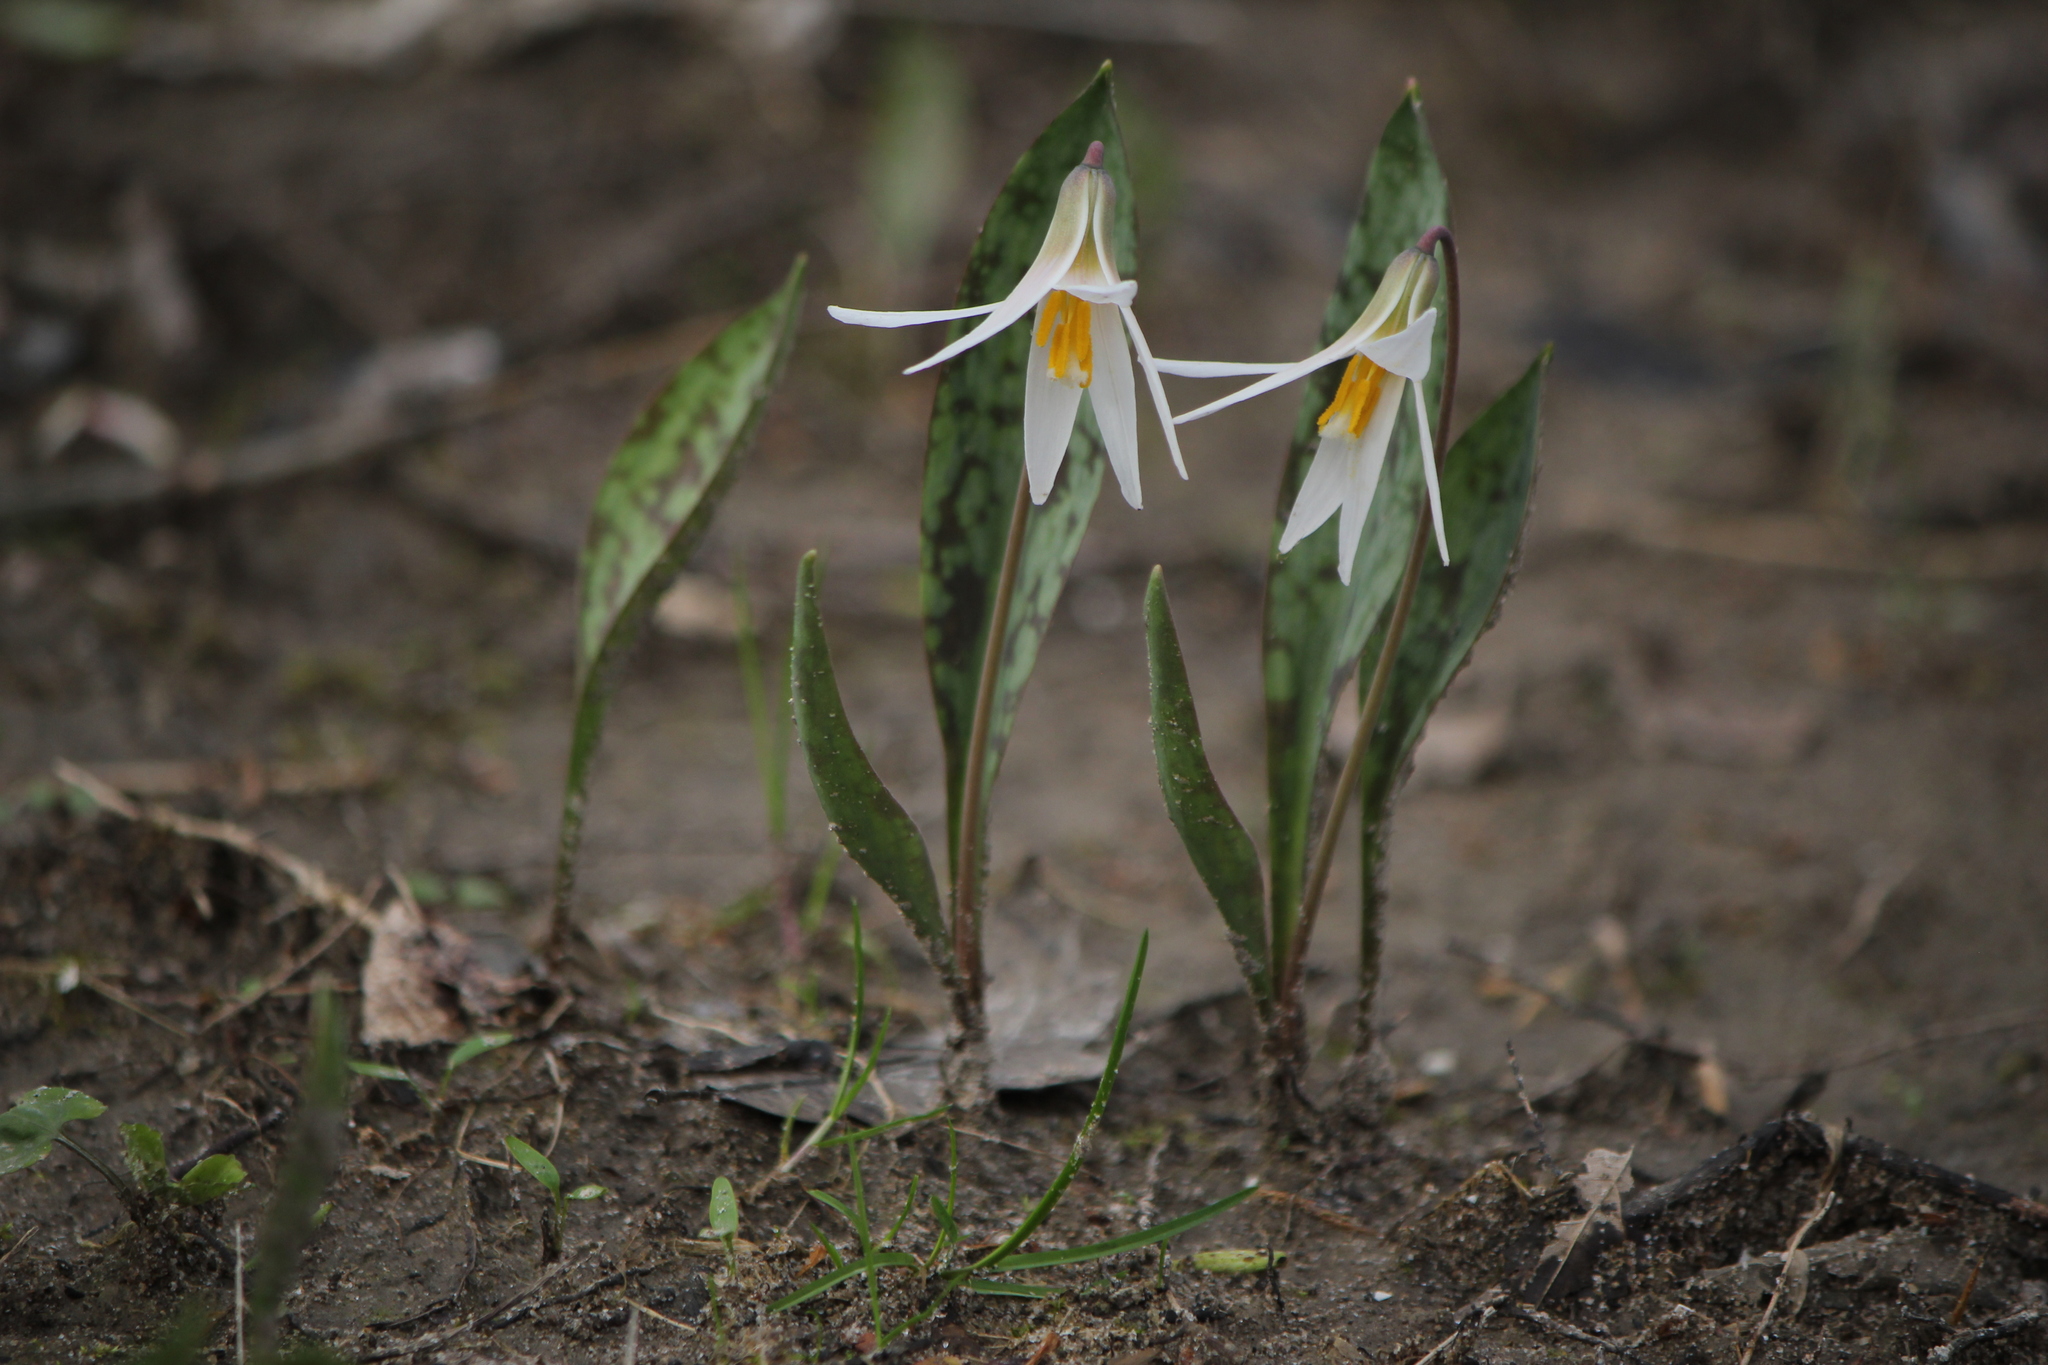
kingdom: Plantae
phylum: Tracheophyta
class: Liliopsida
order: Liliales
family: Liliaceae
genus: Erythronium
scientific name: Erythronium albidum
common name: White trout-lily
